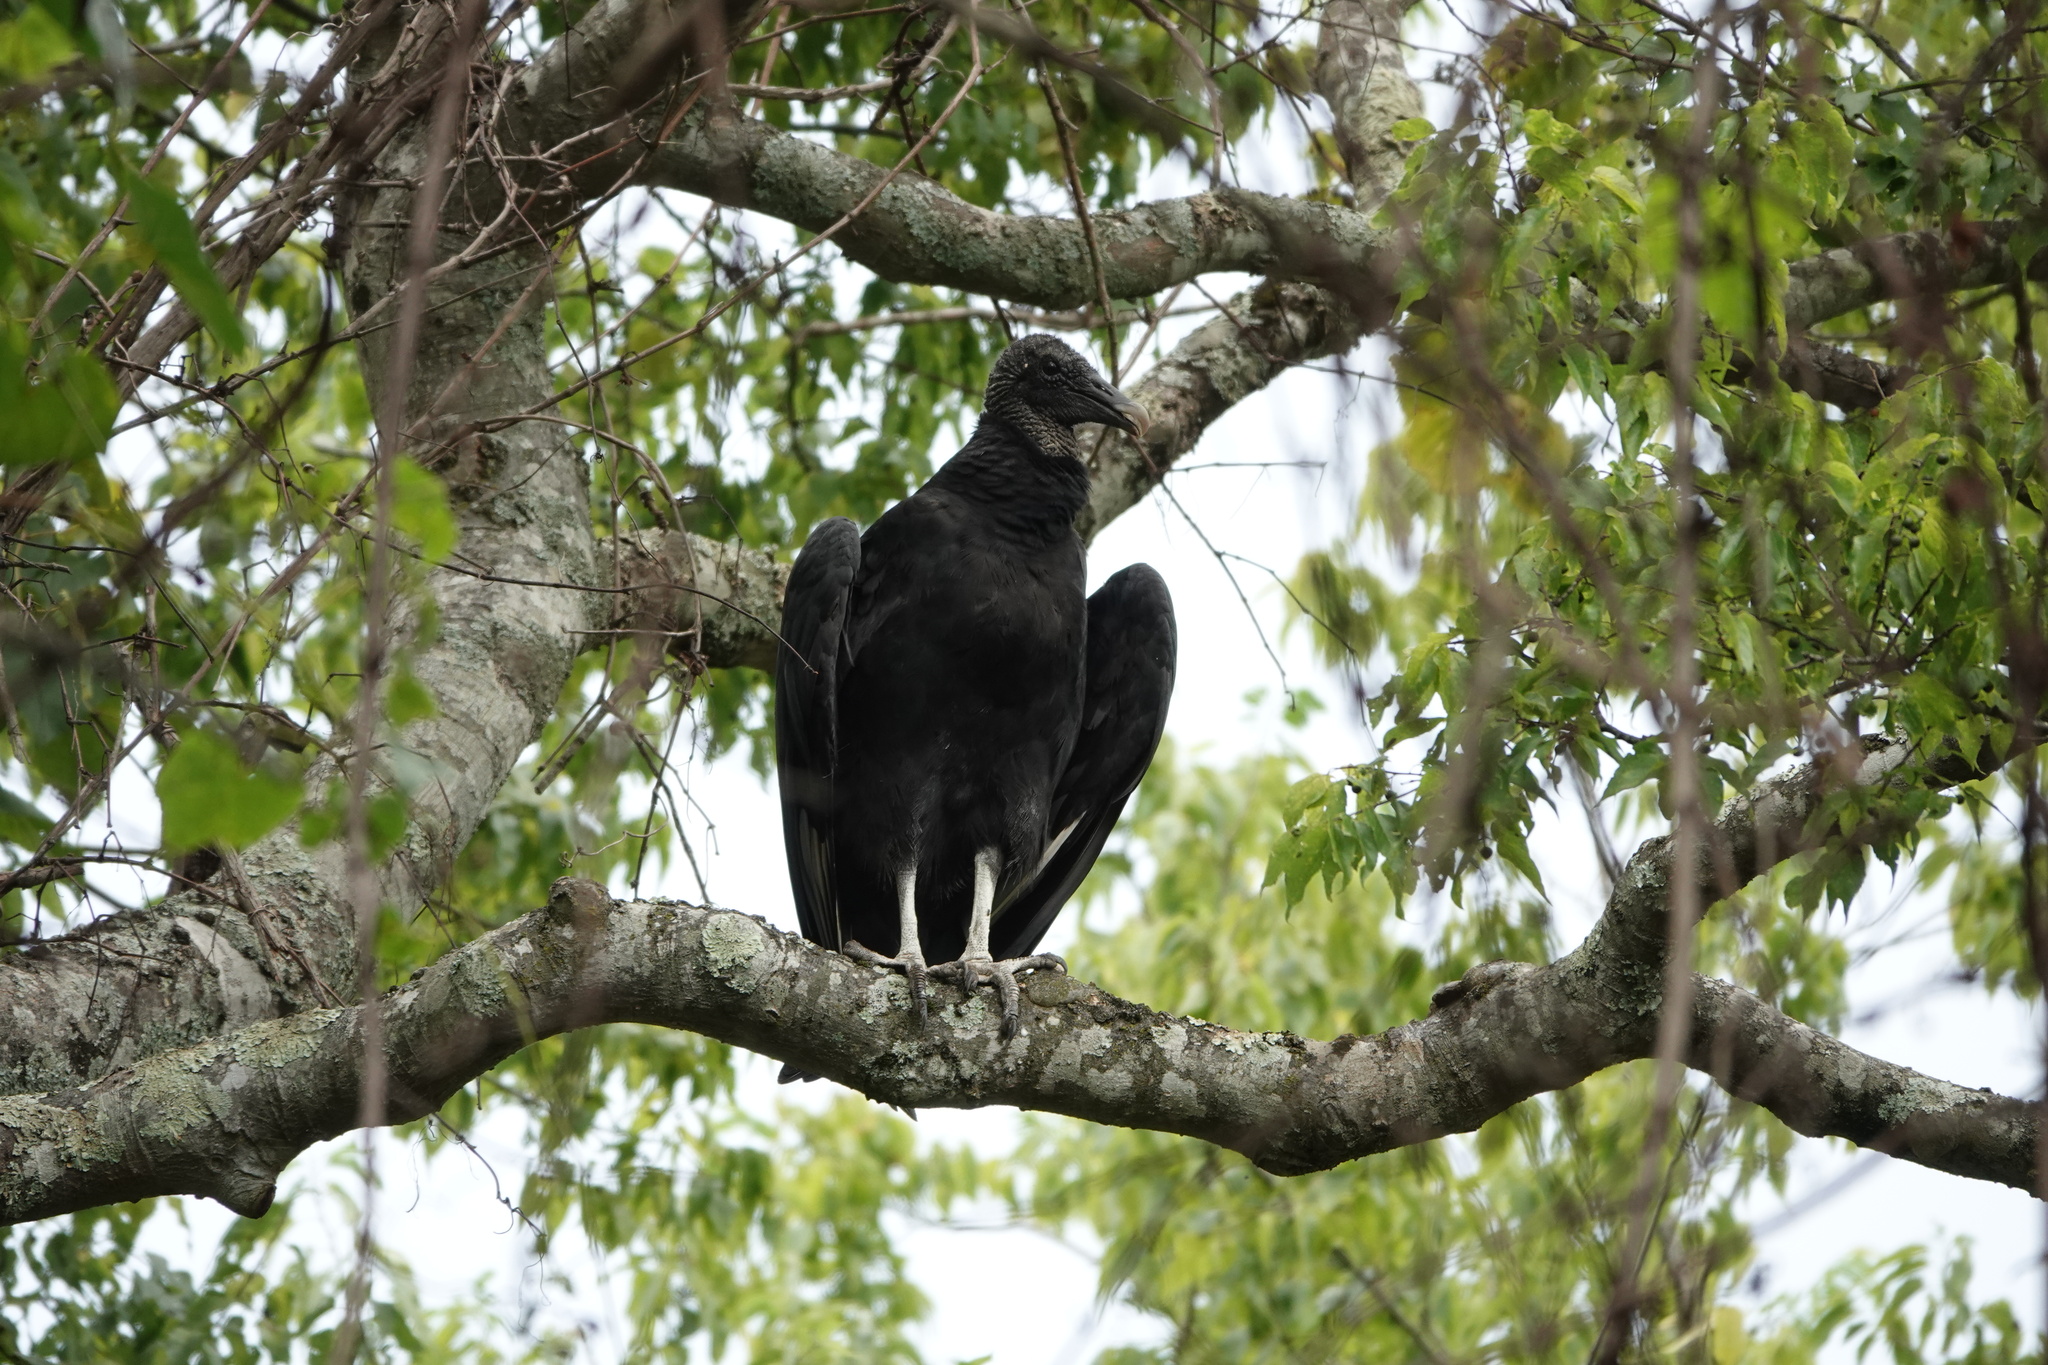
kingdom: Animalia
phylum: Chordata
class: Aves
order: Accipitriformes
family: Cathartidae
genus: Coragyps
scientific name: Coragyps atratus
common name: Black vulture
